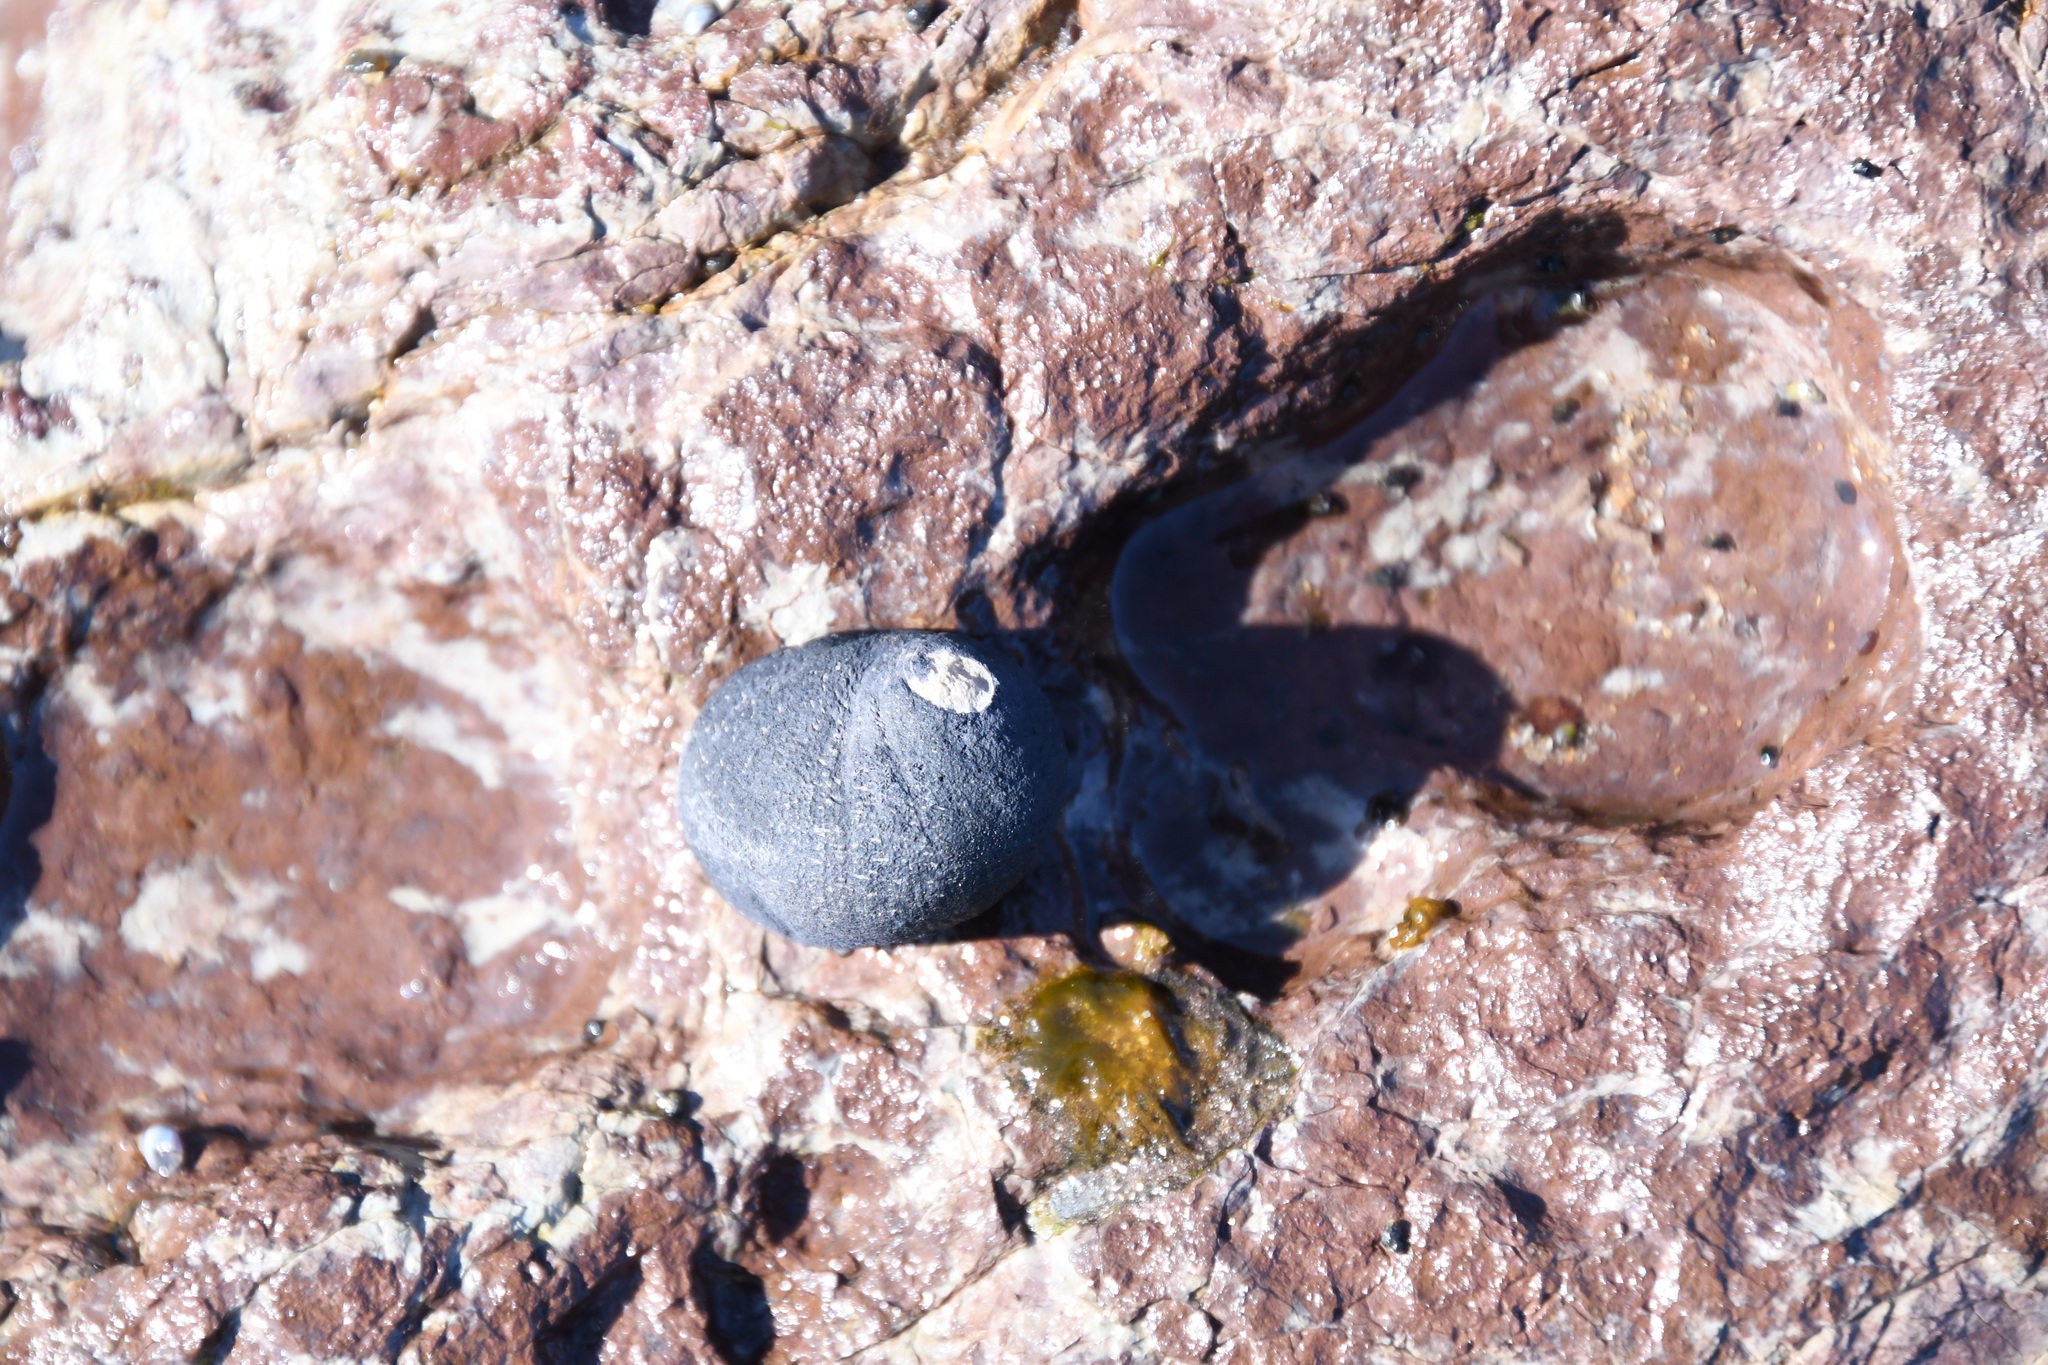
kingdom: Animalia
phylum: Mollusca
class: Gastropoda
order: Cycloneritida
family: Neritidae
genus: Nerita
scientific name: Nerita melanotragus
